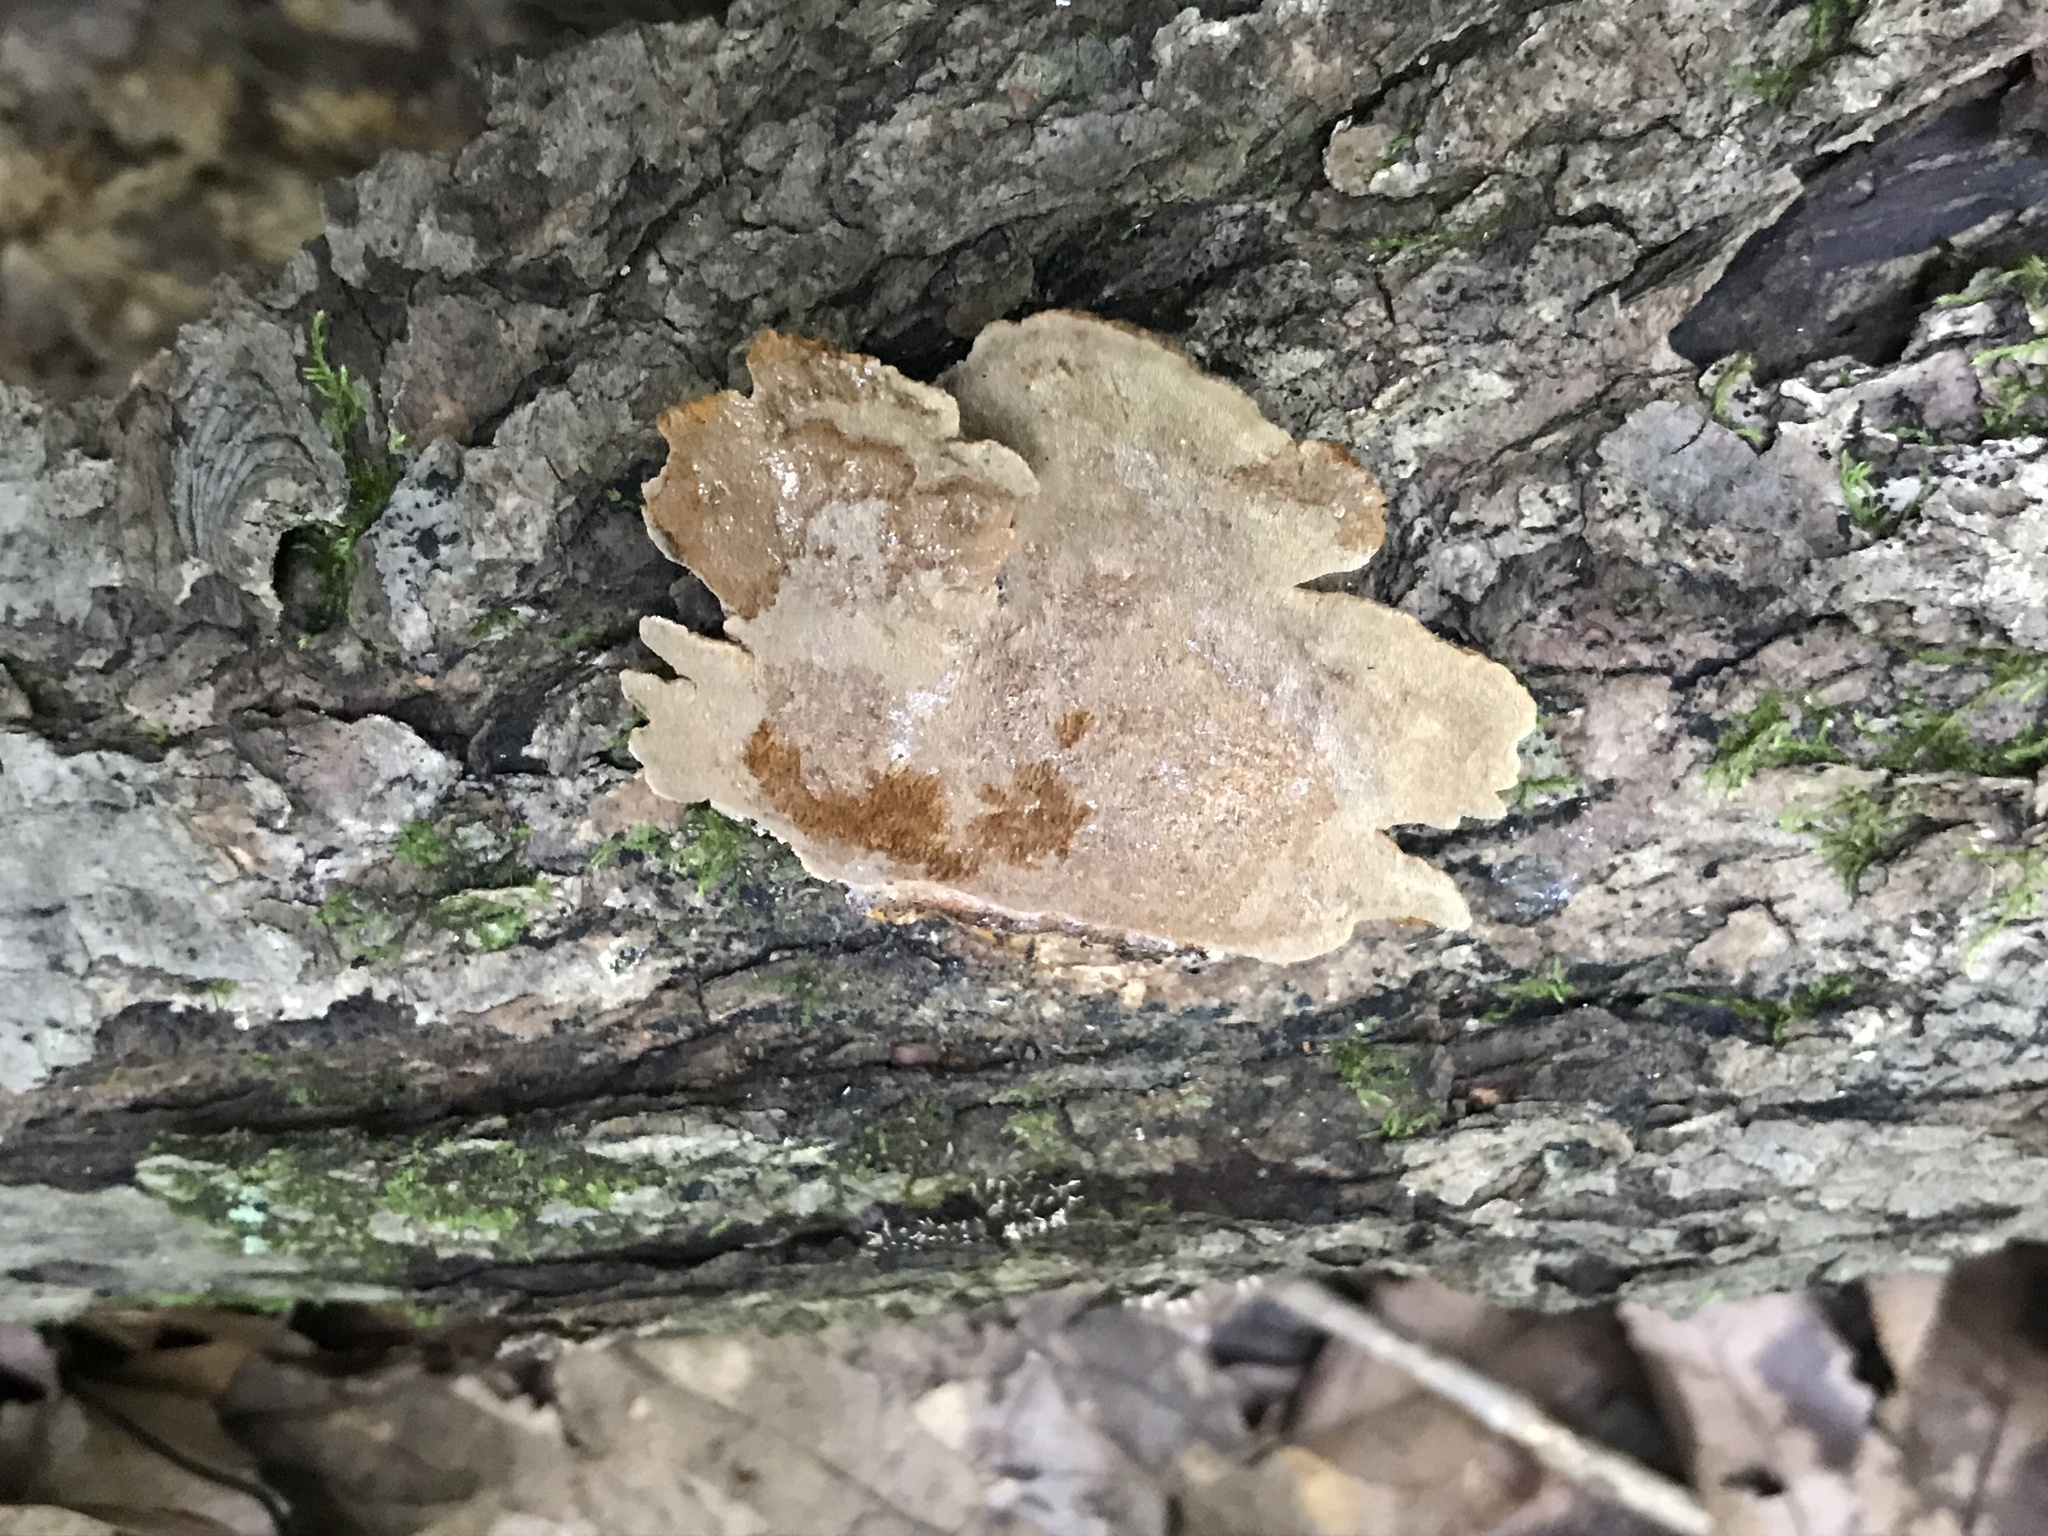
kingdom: Fungi
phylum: Basidiomycota
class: Agaricomycetes
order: Hymenochaetales
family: Hymenochaetaceae
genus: Phellinus
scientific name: Phellinus gilvus
